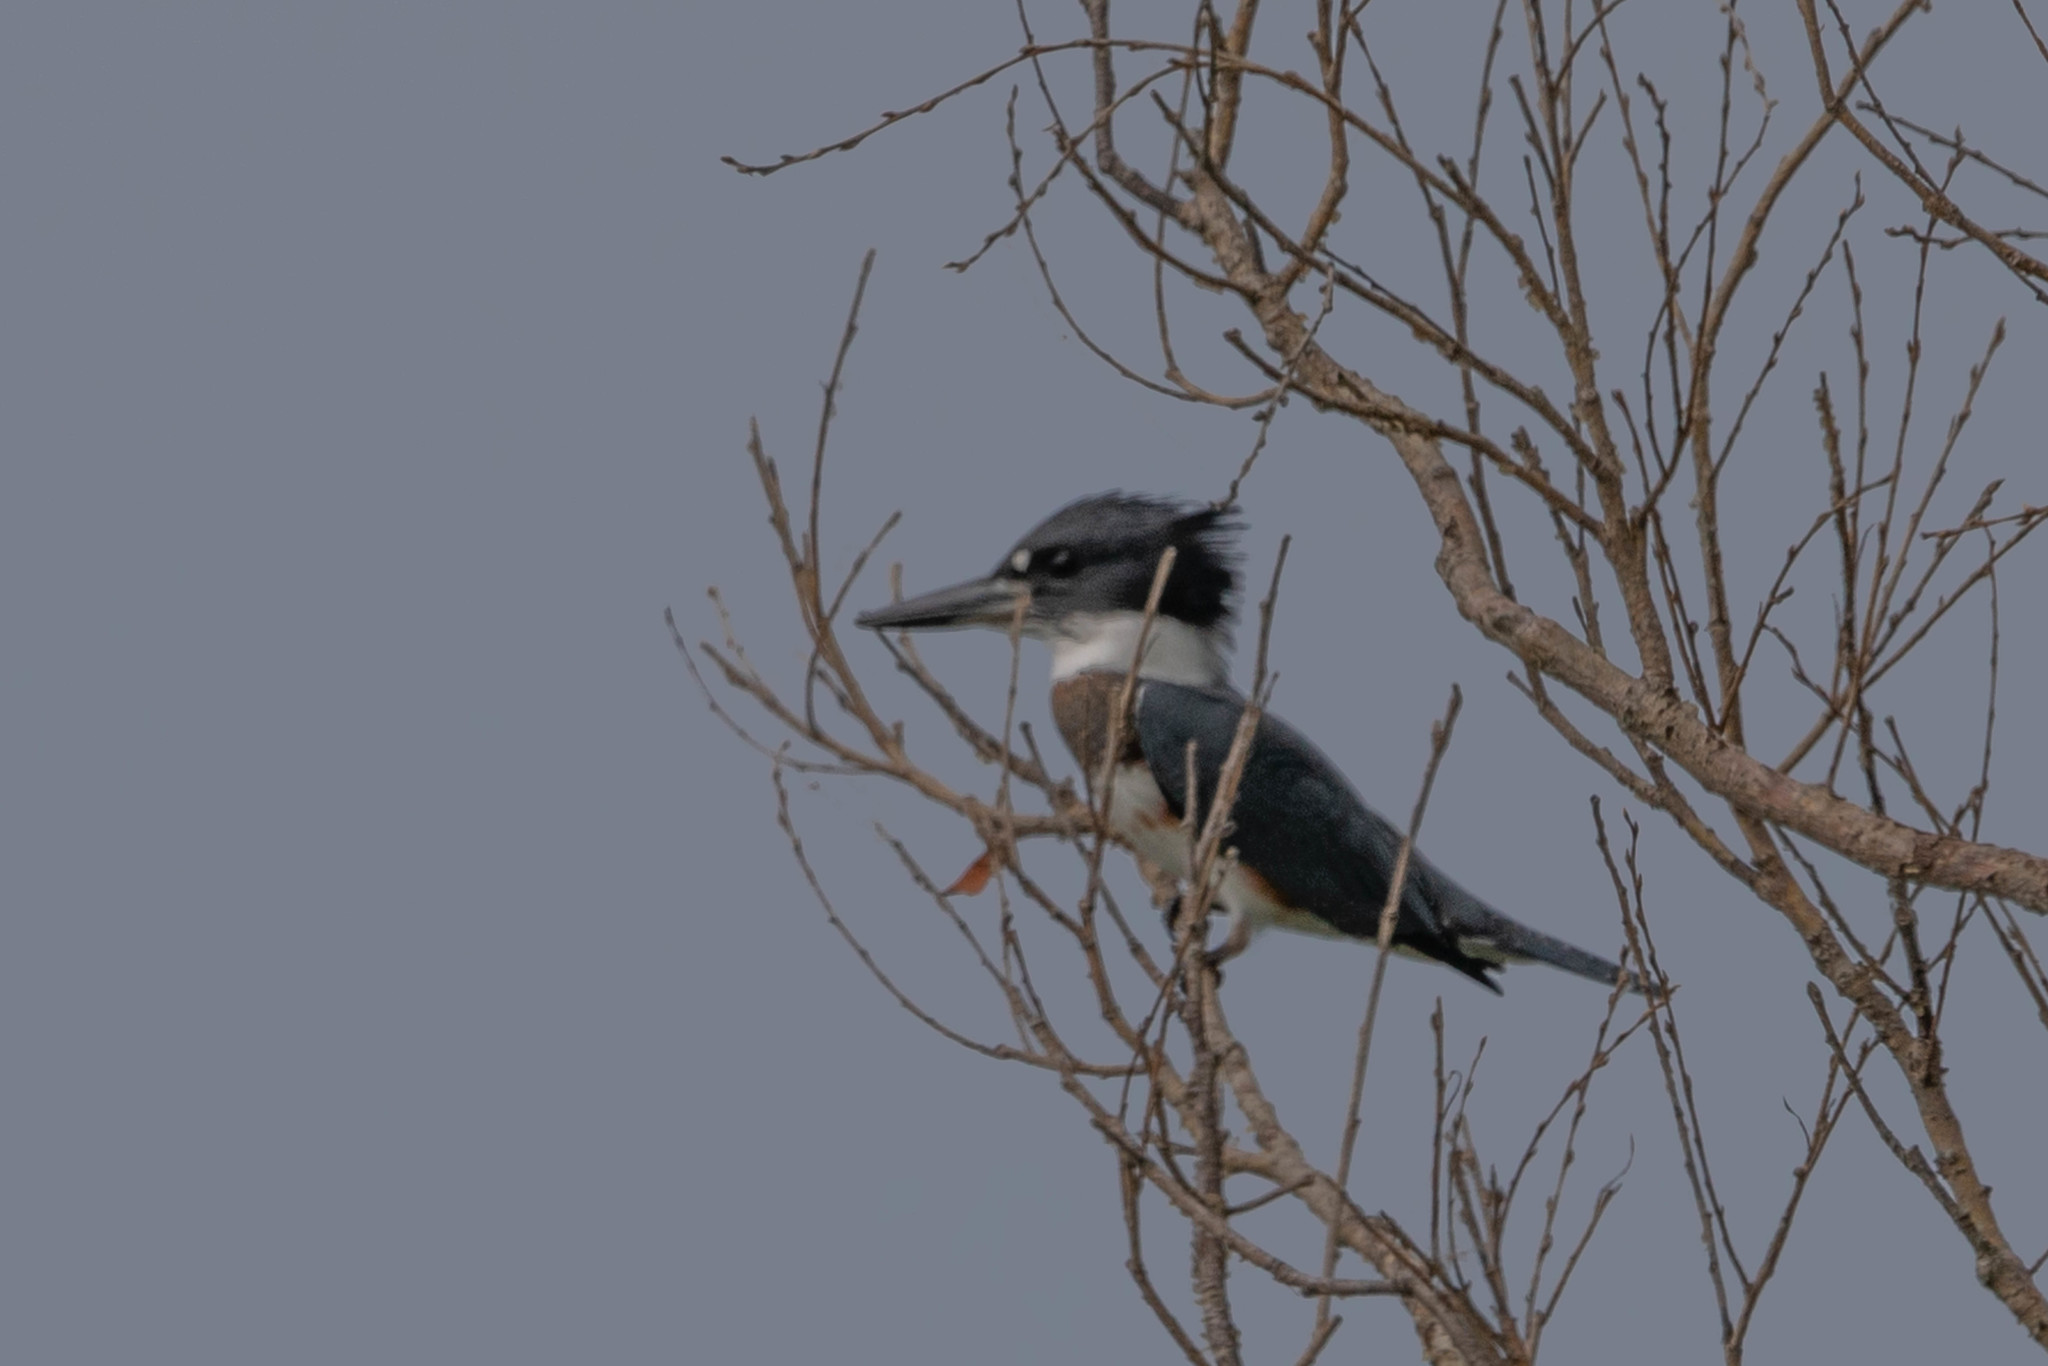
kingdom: Animalia
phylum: Chordata
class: Aves
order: Coraciiformes
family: Alcedinidae
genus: Megaceryle
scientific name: Megaceryle alcyon
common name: Belted kingfisher
